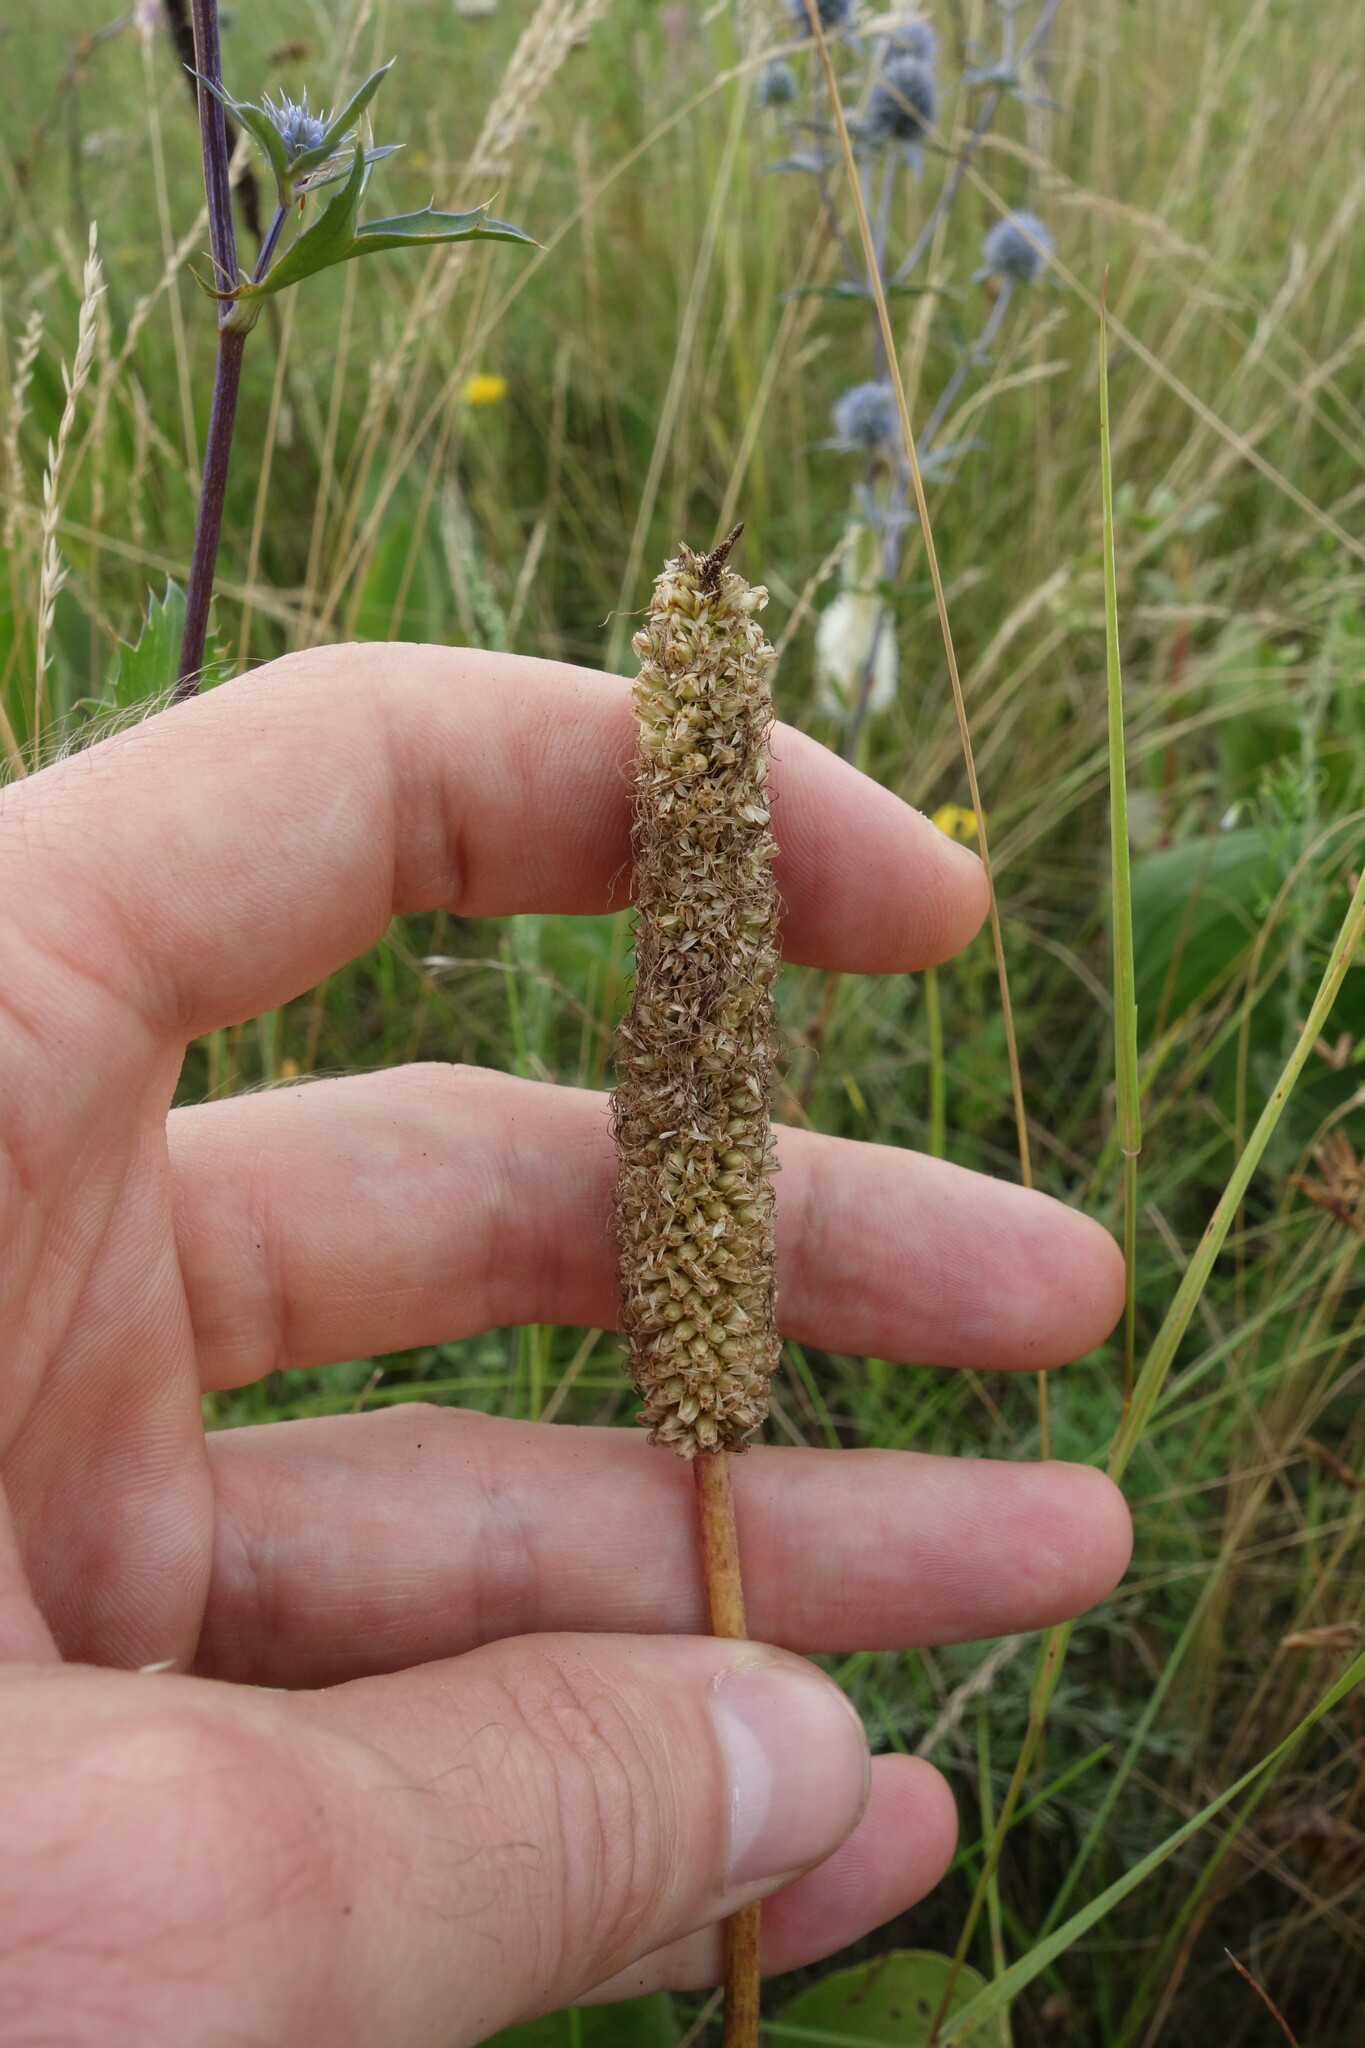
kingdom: Plantae
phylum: Tracheophyta
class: Magnoliopsida
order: Lamiales
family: Plantaginaceae
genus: Plantago
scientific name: Plantago maxima
